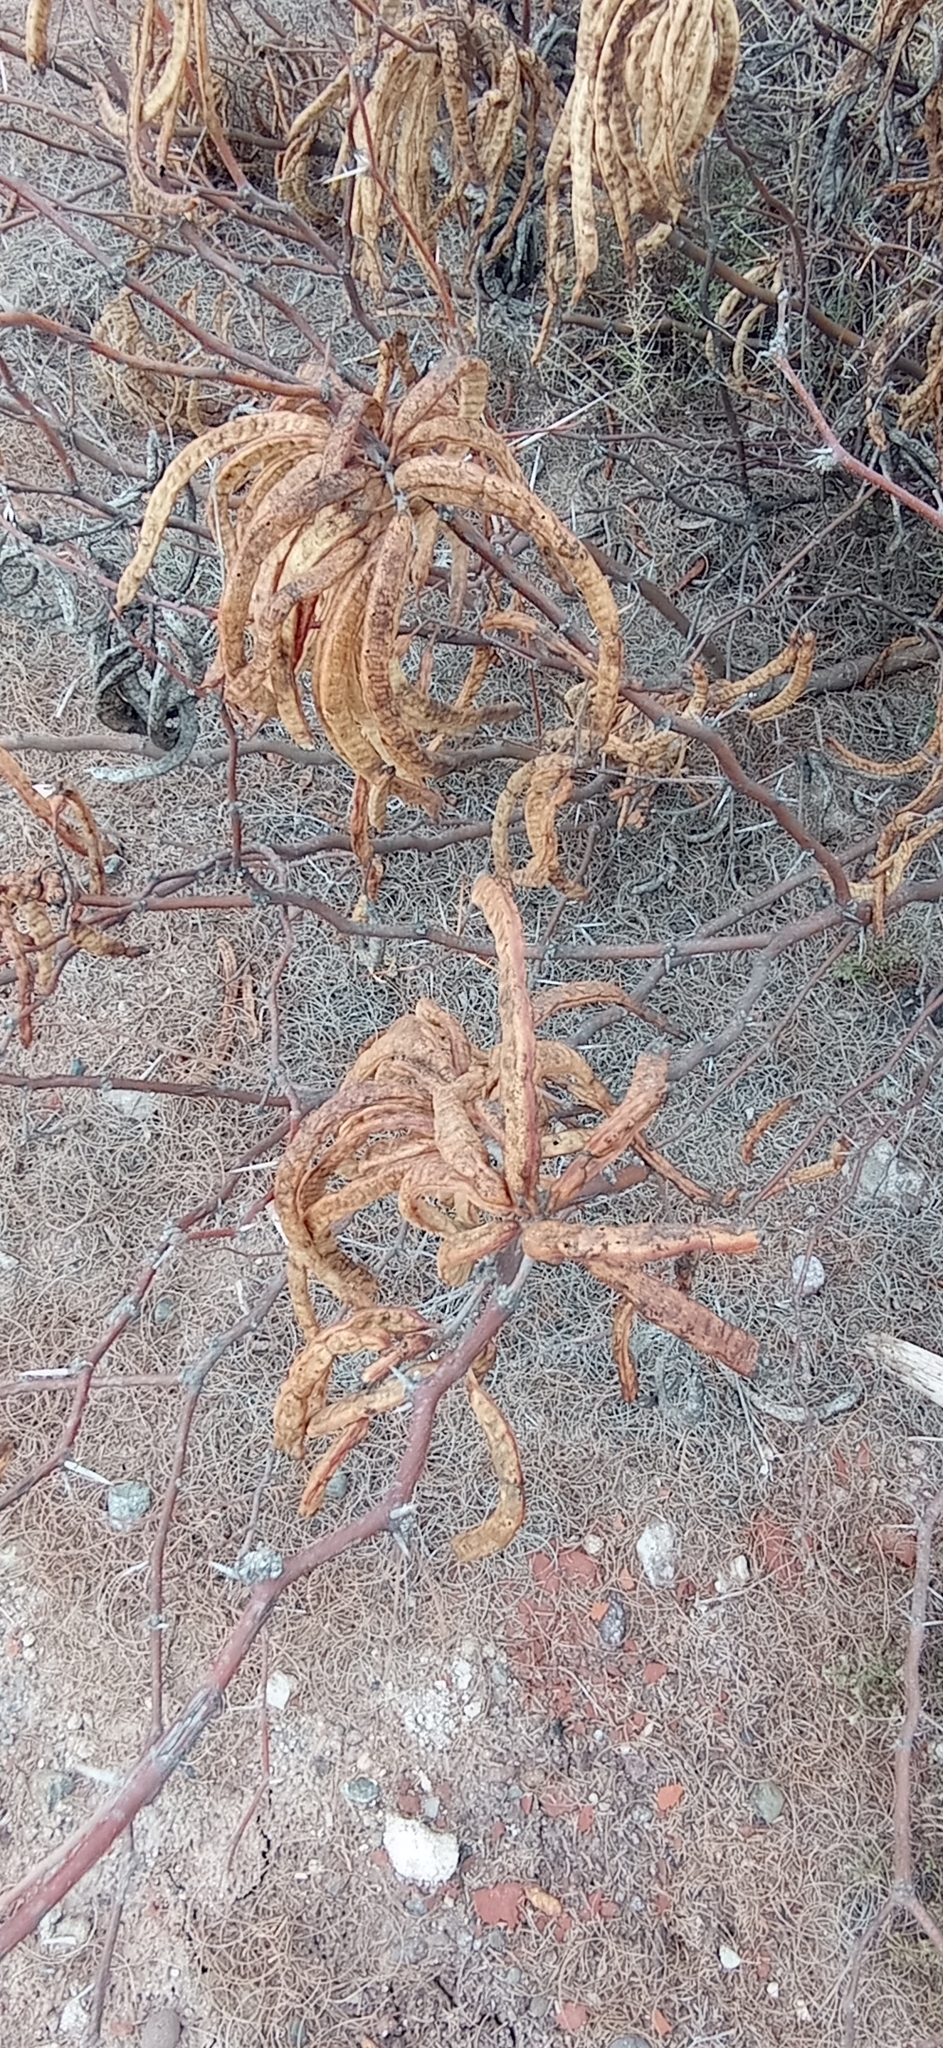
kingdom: Plantae
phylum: Tracheophyta
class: Magnoliopsida
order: Fabales
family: Fabaceae
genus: Prosopis
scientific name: Prosopis alpataco
